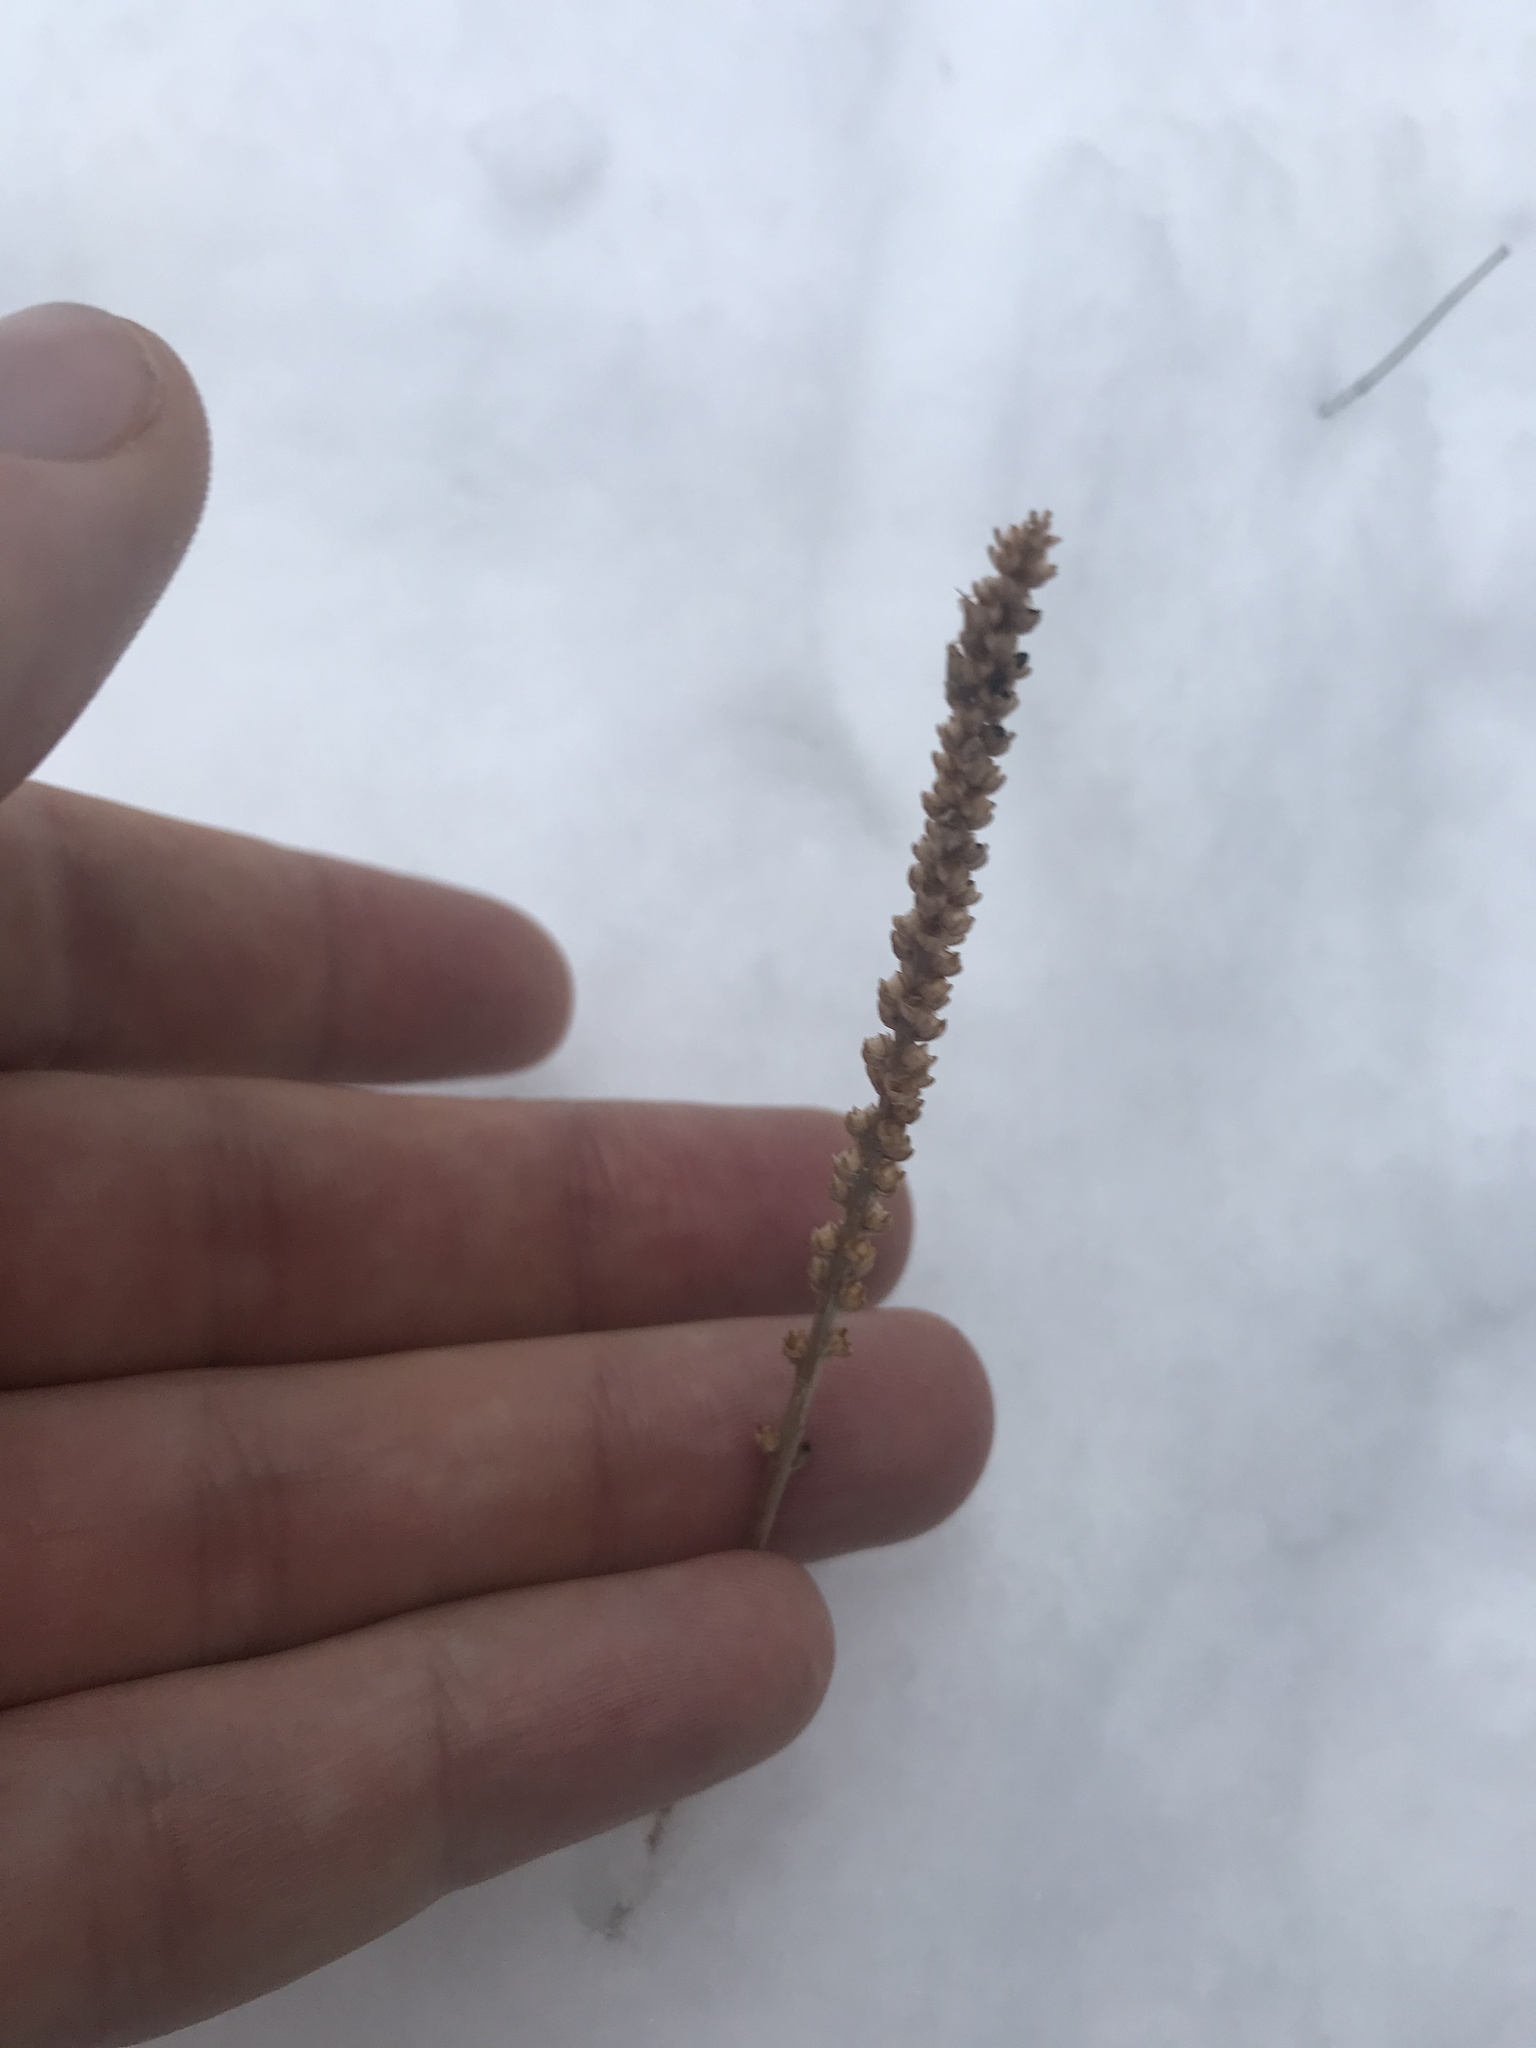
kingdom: Plantae
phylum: Tracheophyta
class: Magnoliopsida
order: Lamiales
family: Plantaginaceae
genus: Plantago
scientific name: Plantago major
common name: Common plantain
